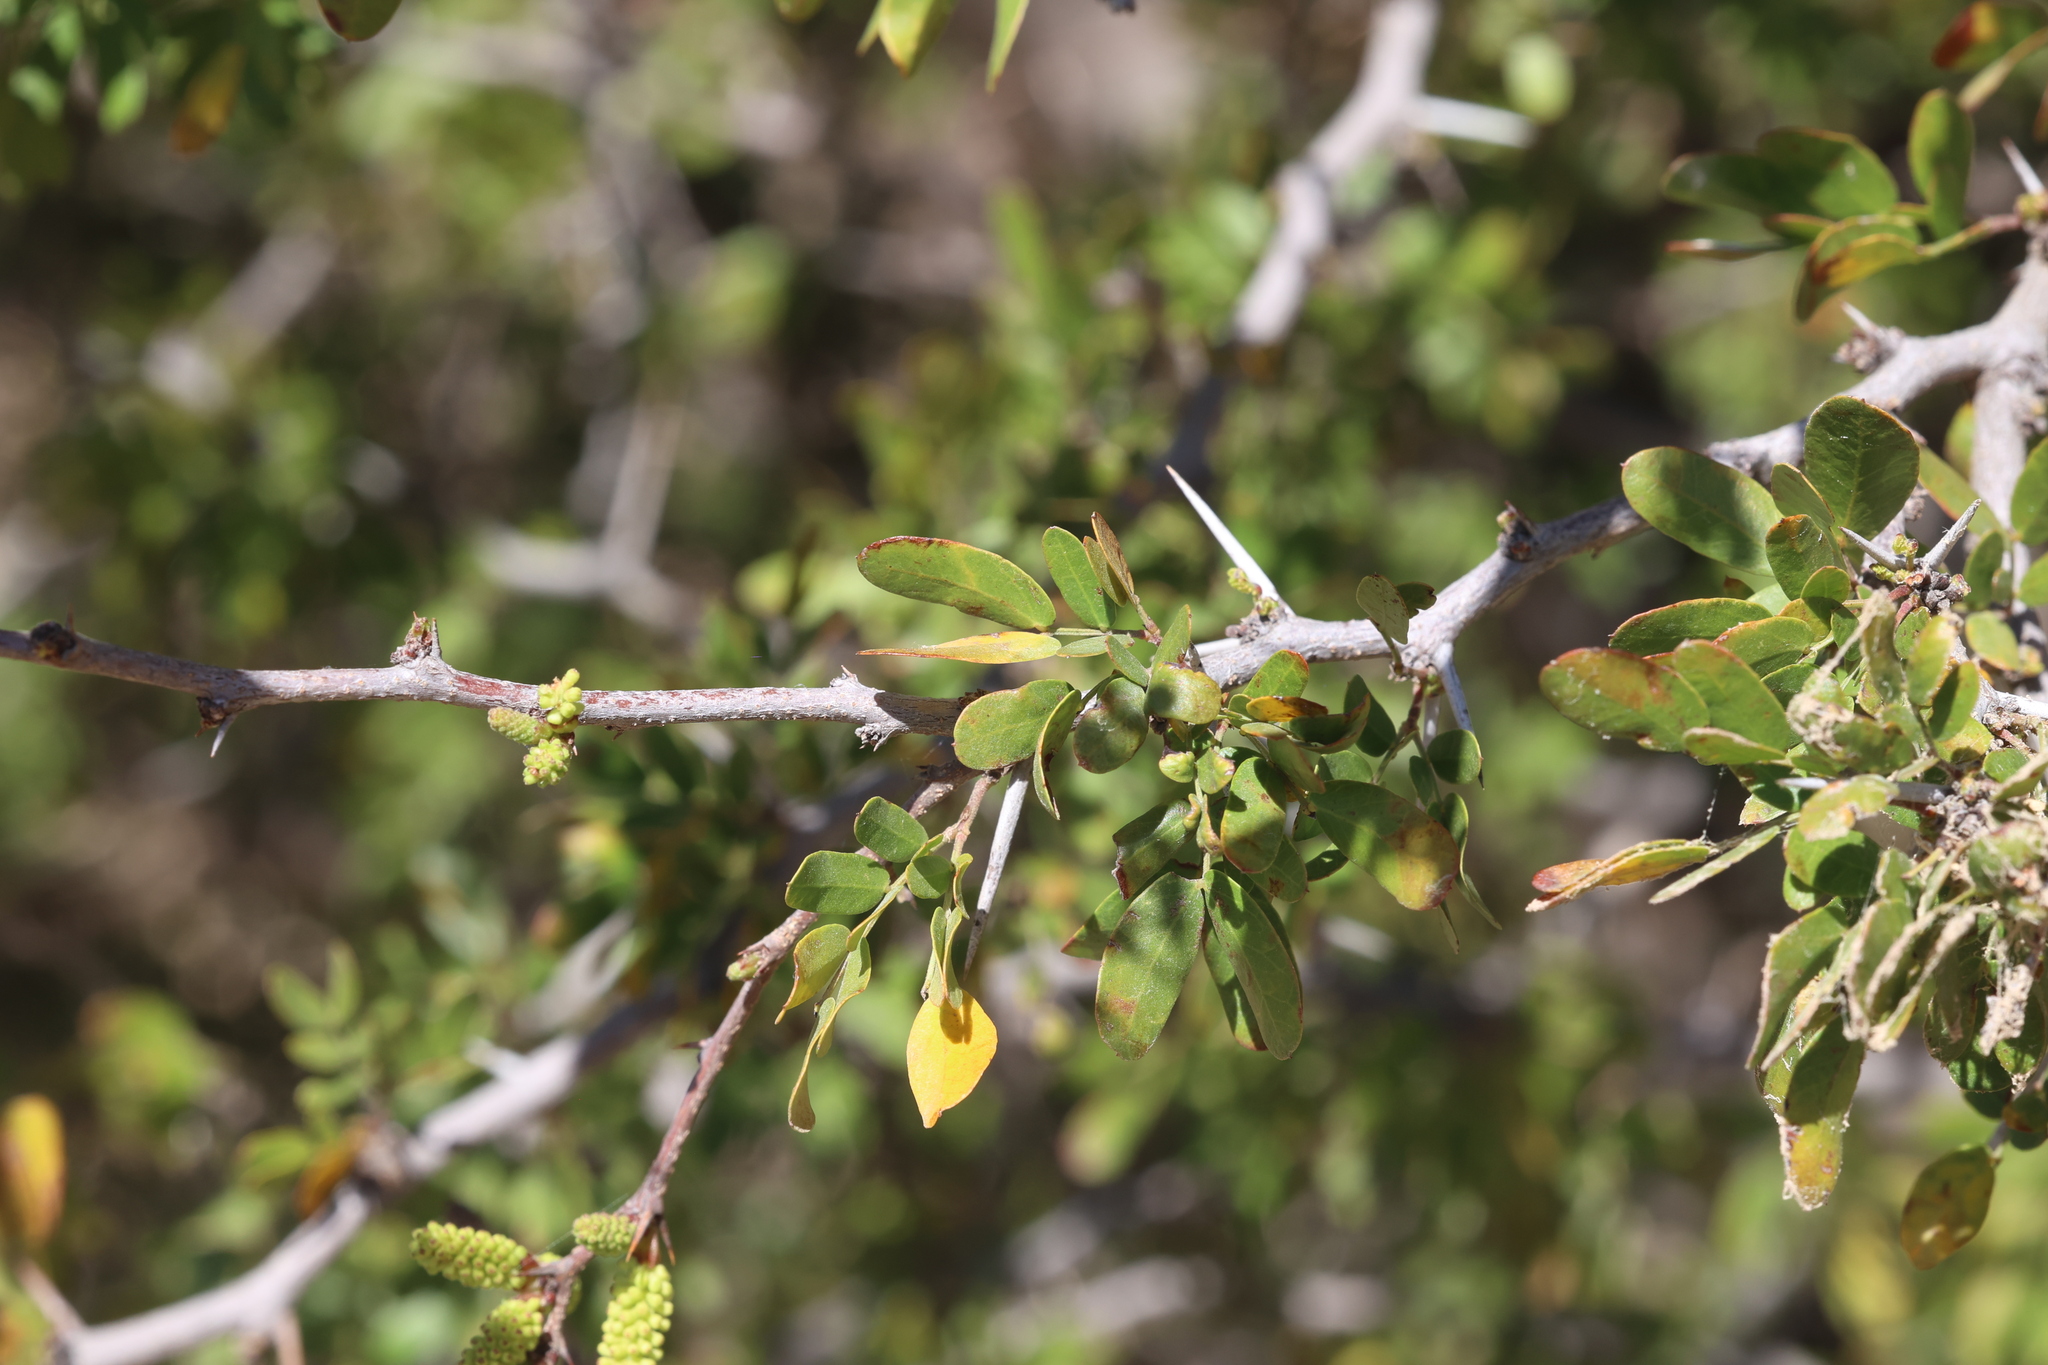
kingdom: Plantae
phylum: Tracheophyta
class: Magnoliopsida
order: Fabales
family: Fabaceae
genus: Vachellia
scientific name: Vachellia rigidula
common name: Blackbrush
